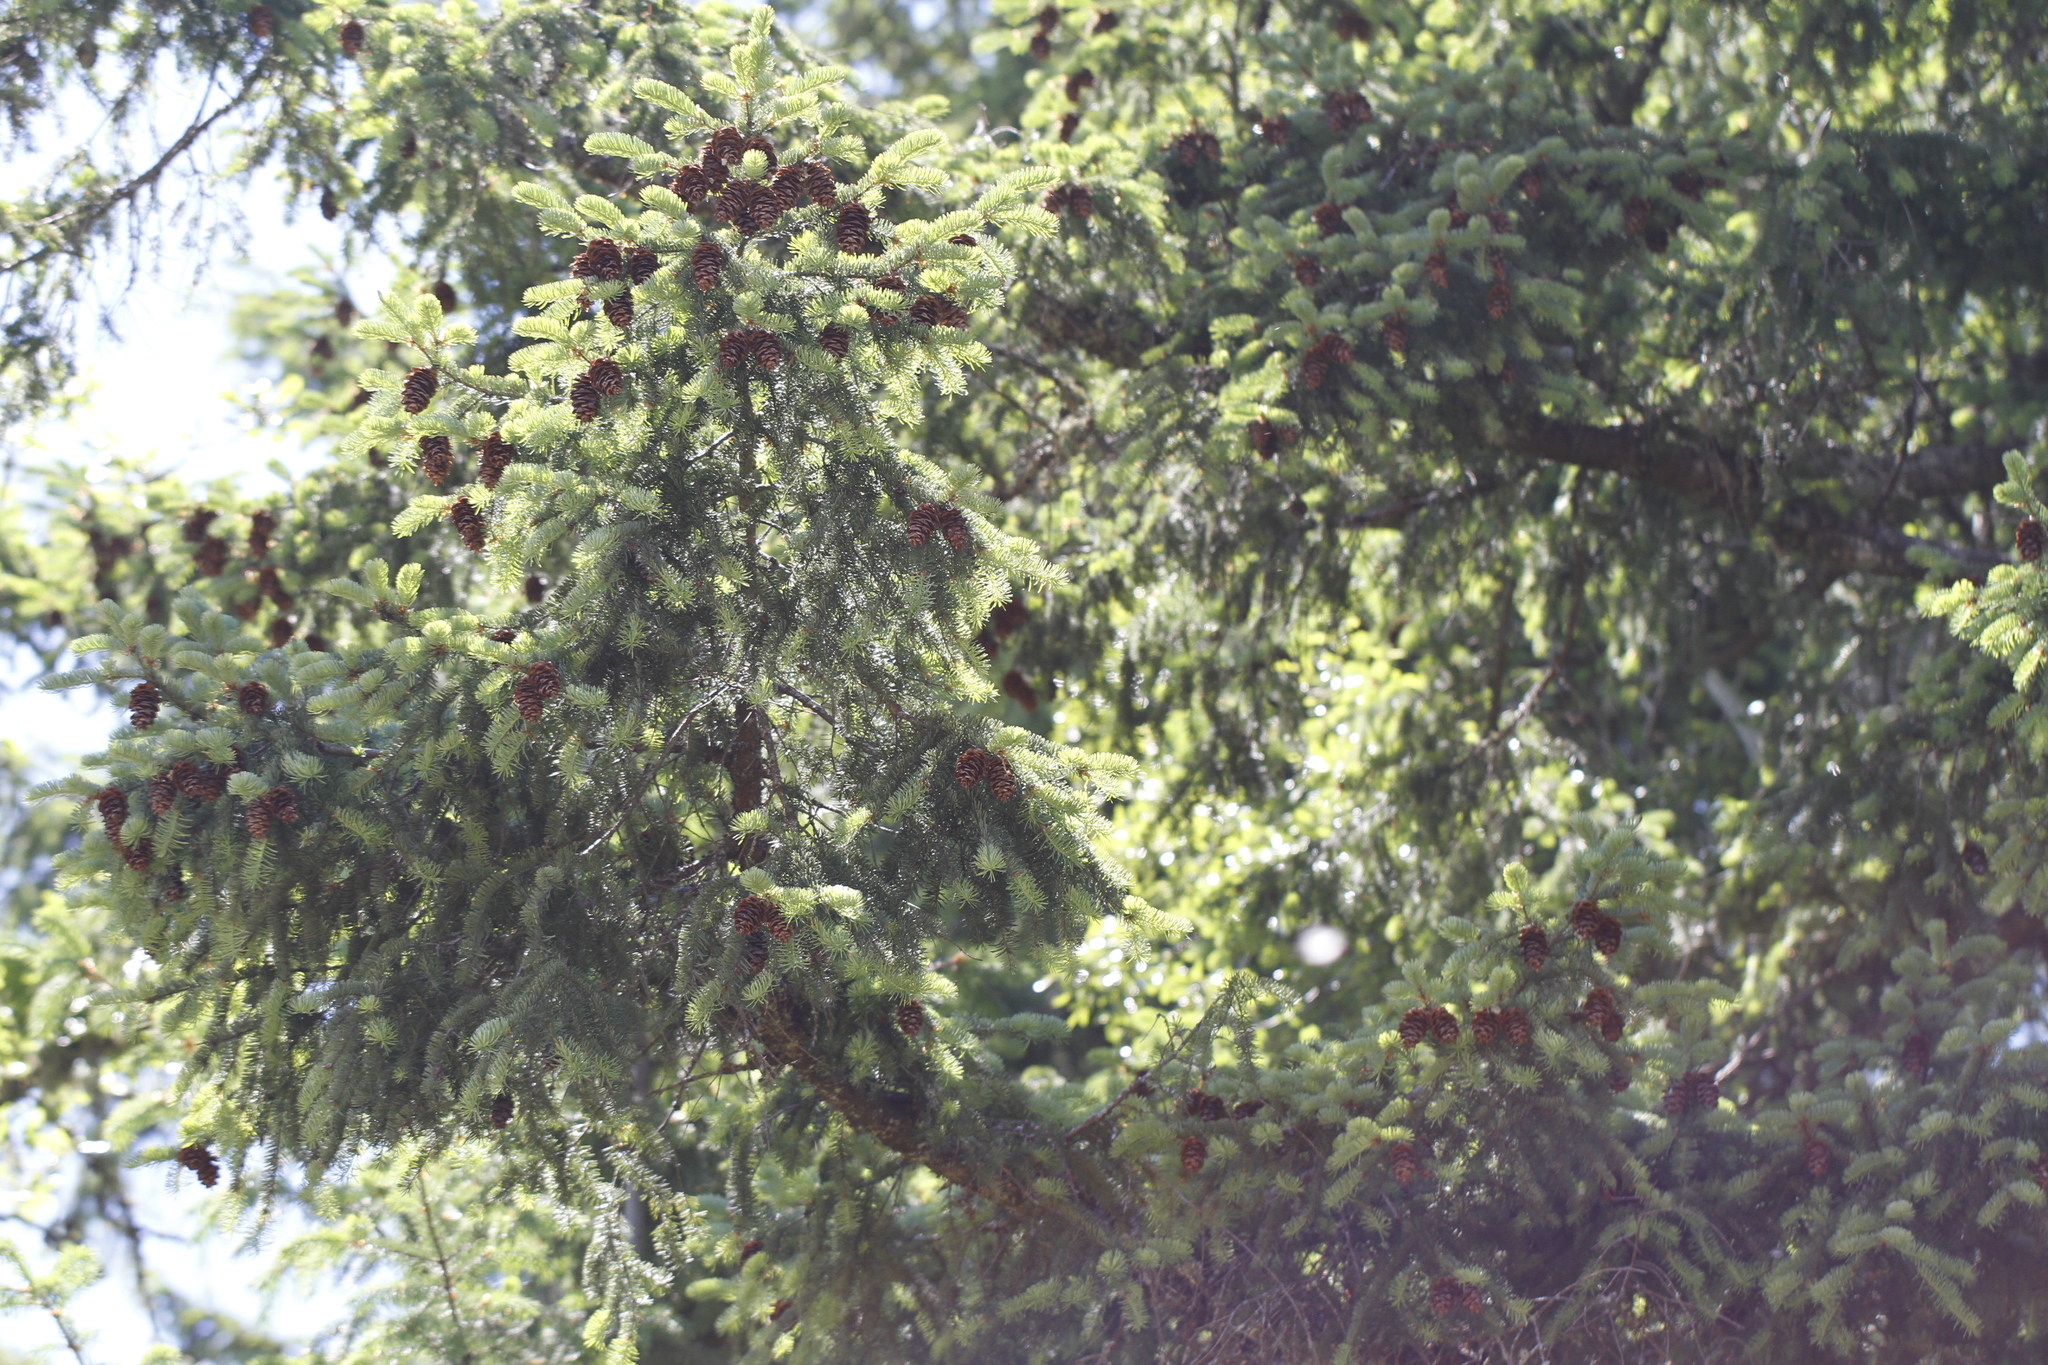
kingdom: Plantae
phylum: Tracheophyta
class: Pinopsida
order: Pinales
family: Pinaceae
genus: Pseudotsuga
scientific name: Pseudotsuga menziesii
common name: Douglas fir
